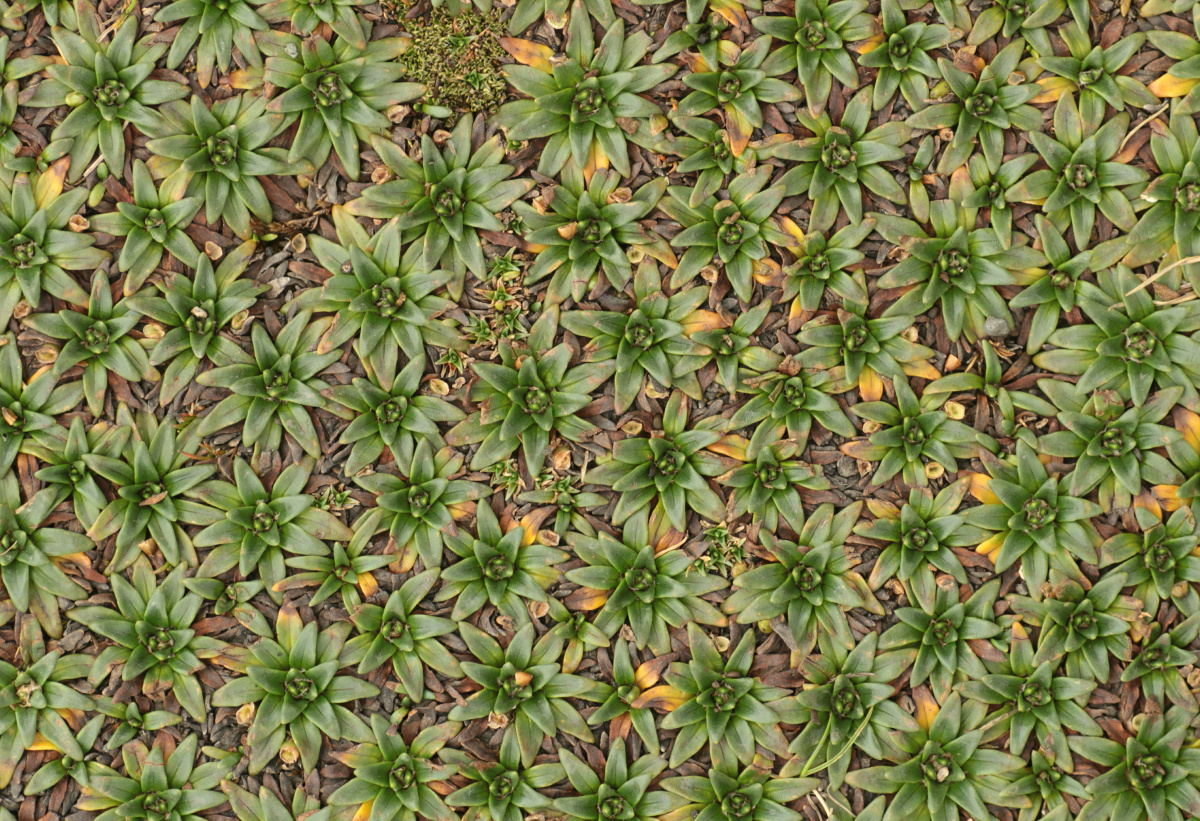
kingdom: Plantae
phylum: Tracheophyta
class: Magnoliopsida
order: Lamiales
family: Plantaginaceae
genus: Plantago
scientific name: Plantago rigida
